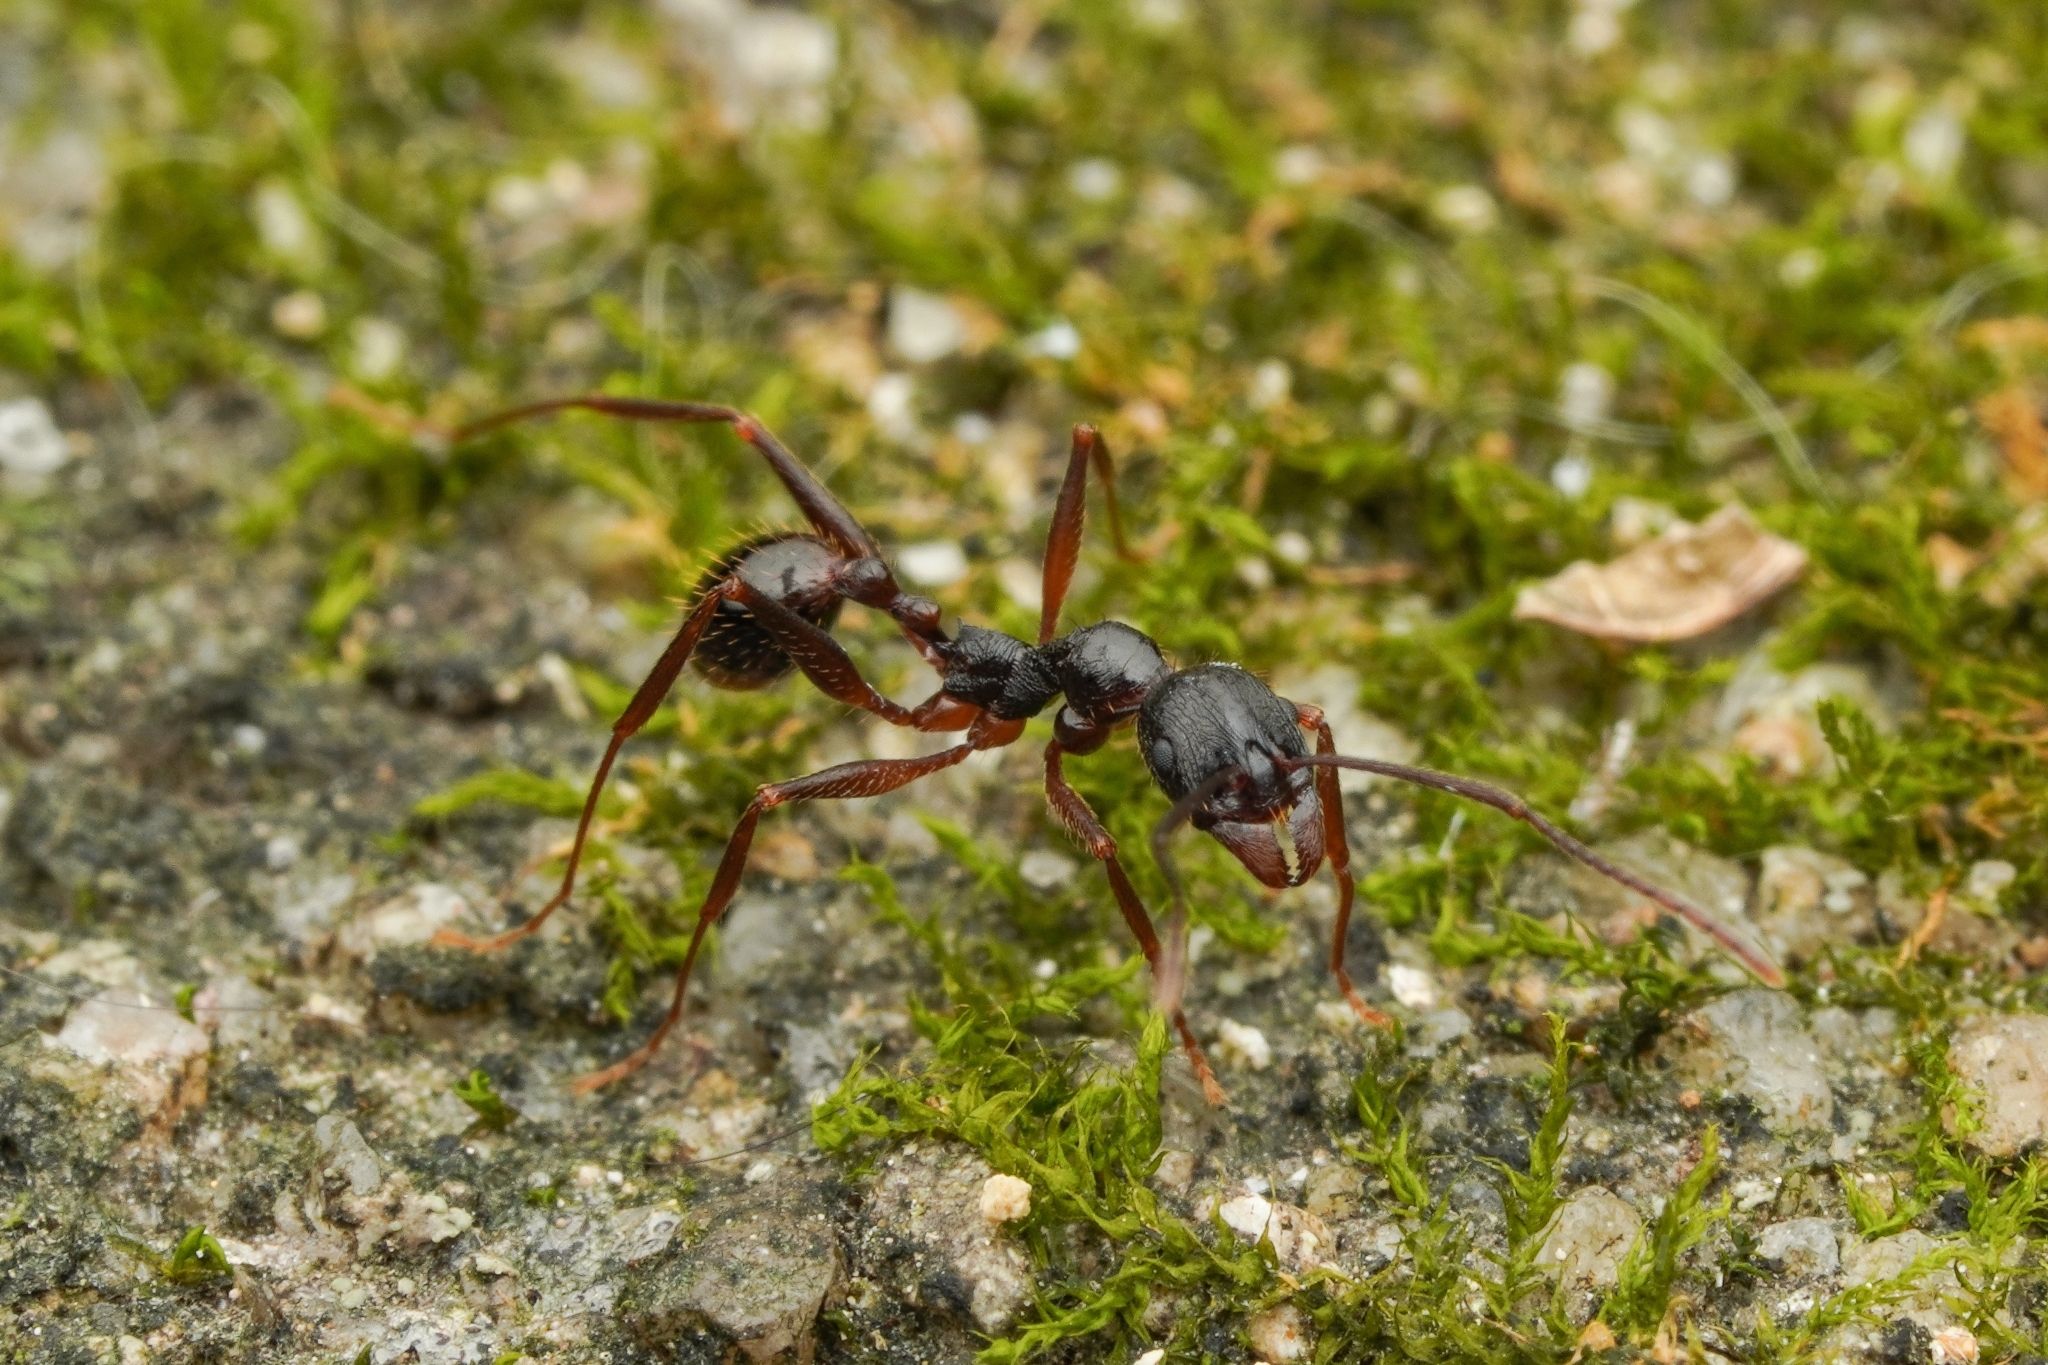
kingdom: Animalia
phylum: Arthropoda
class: Insecta
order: Hymenoptera
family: Formicidae
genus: Aphaenogaster
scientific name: Aphaenogaster famelica
